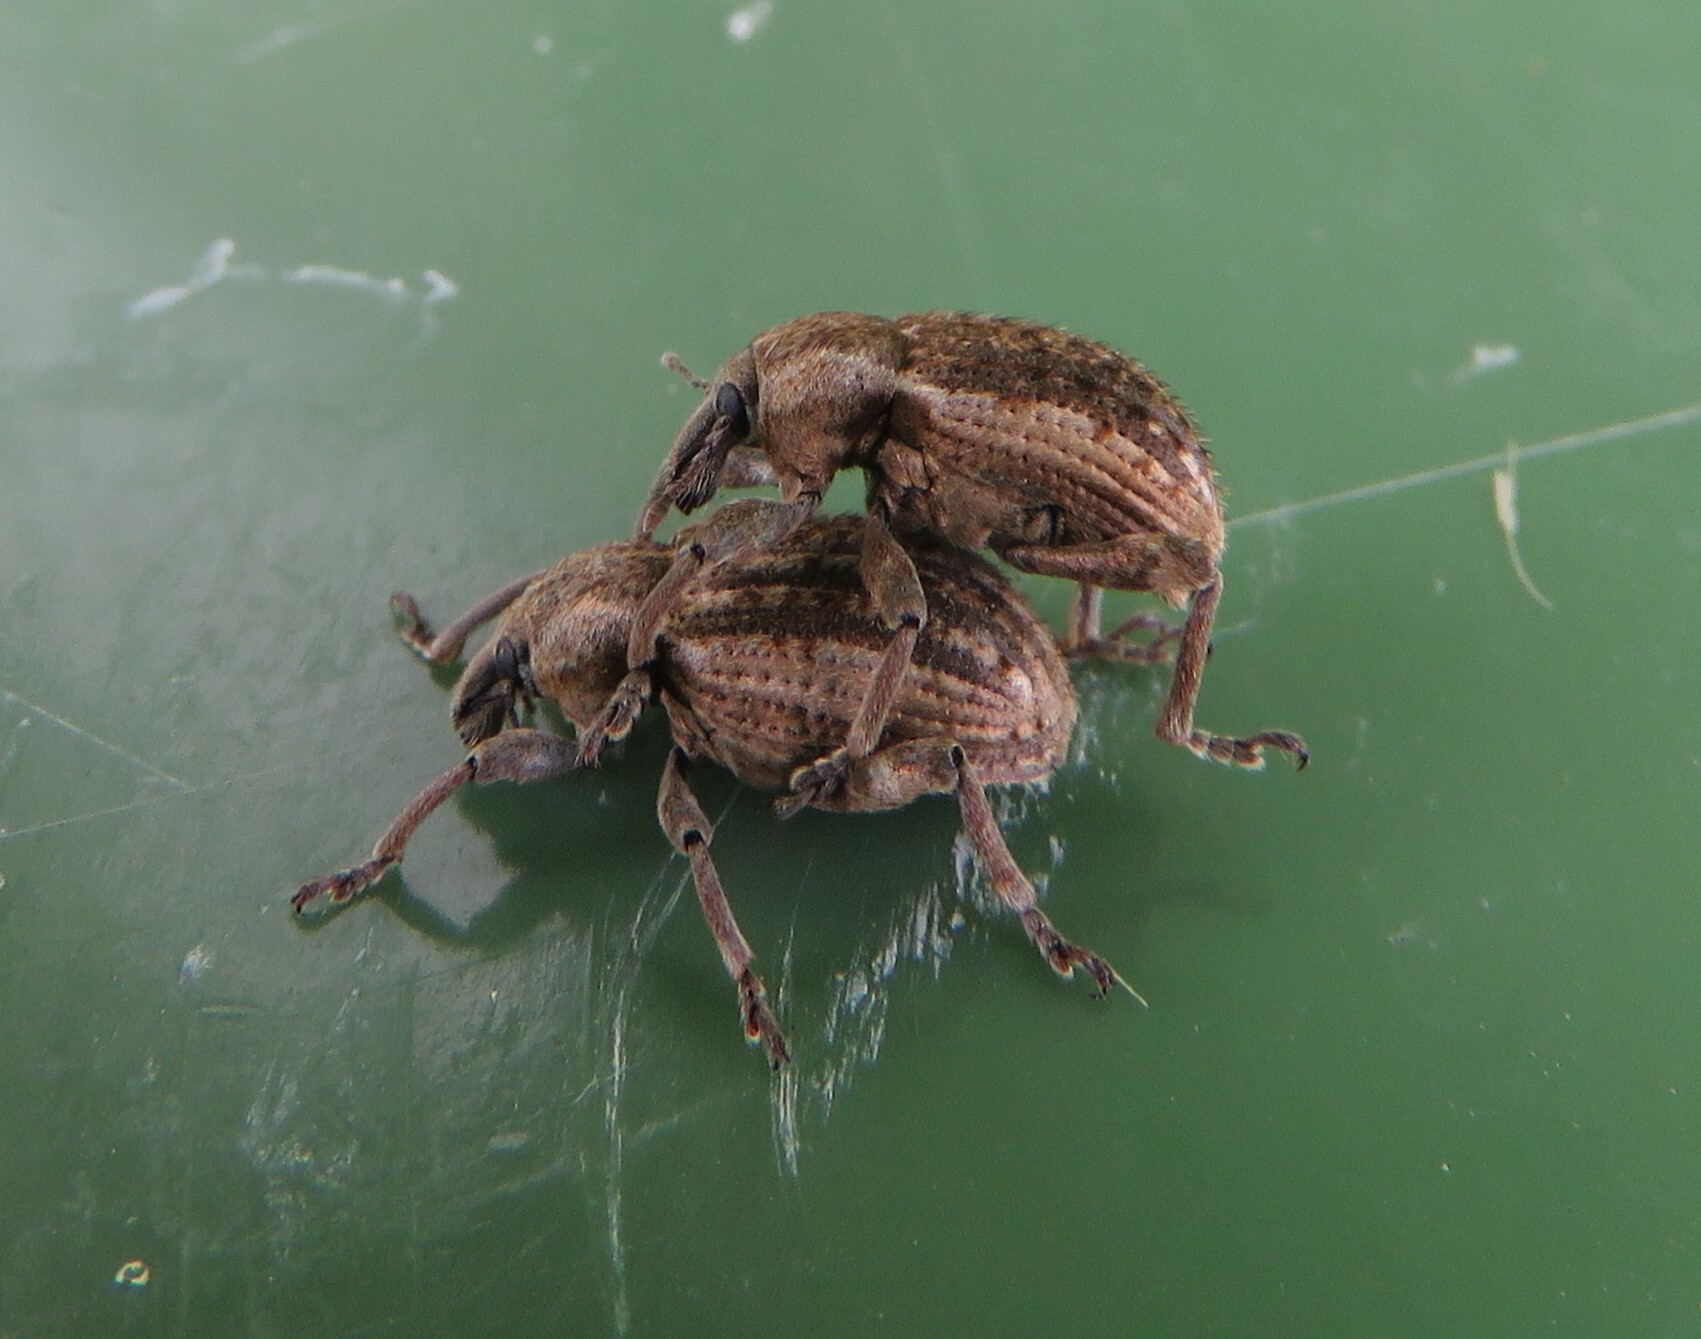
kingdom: Animalia
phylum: Arthropoda
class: Insecta
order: Coleoptera
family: Curculionidae
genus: Brachypera
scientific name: Brachypera zoilus
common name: Clover leaf weevil
